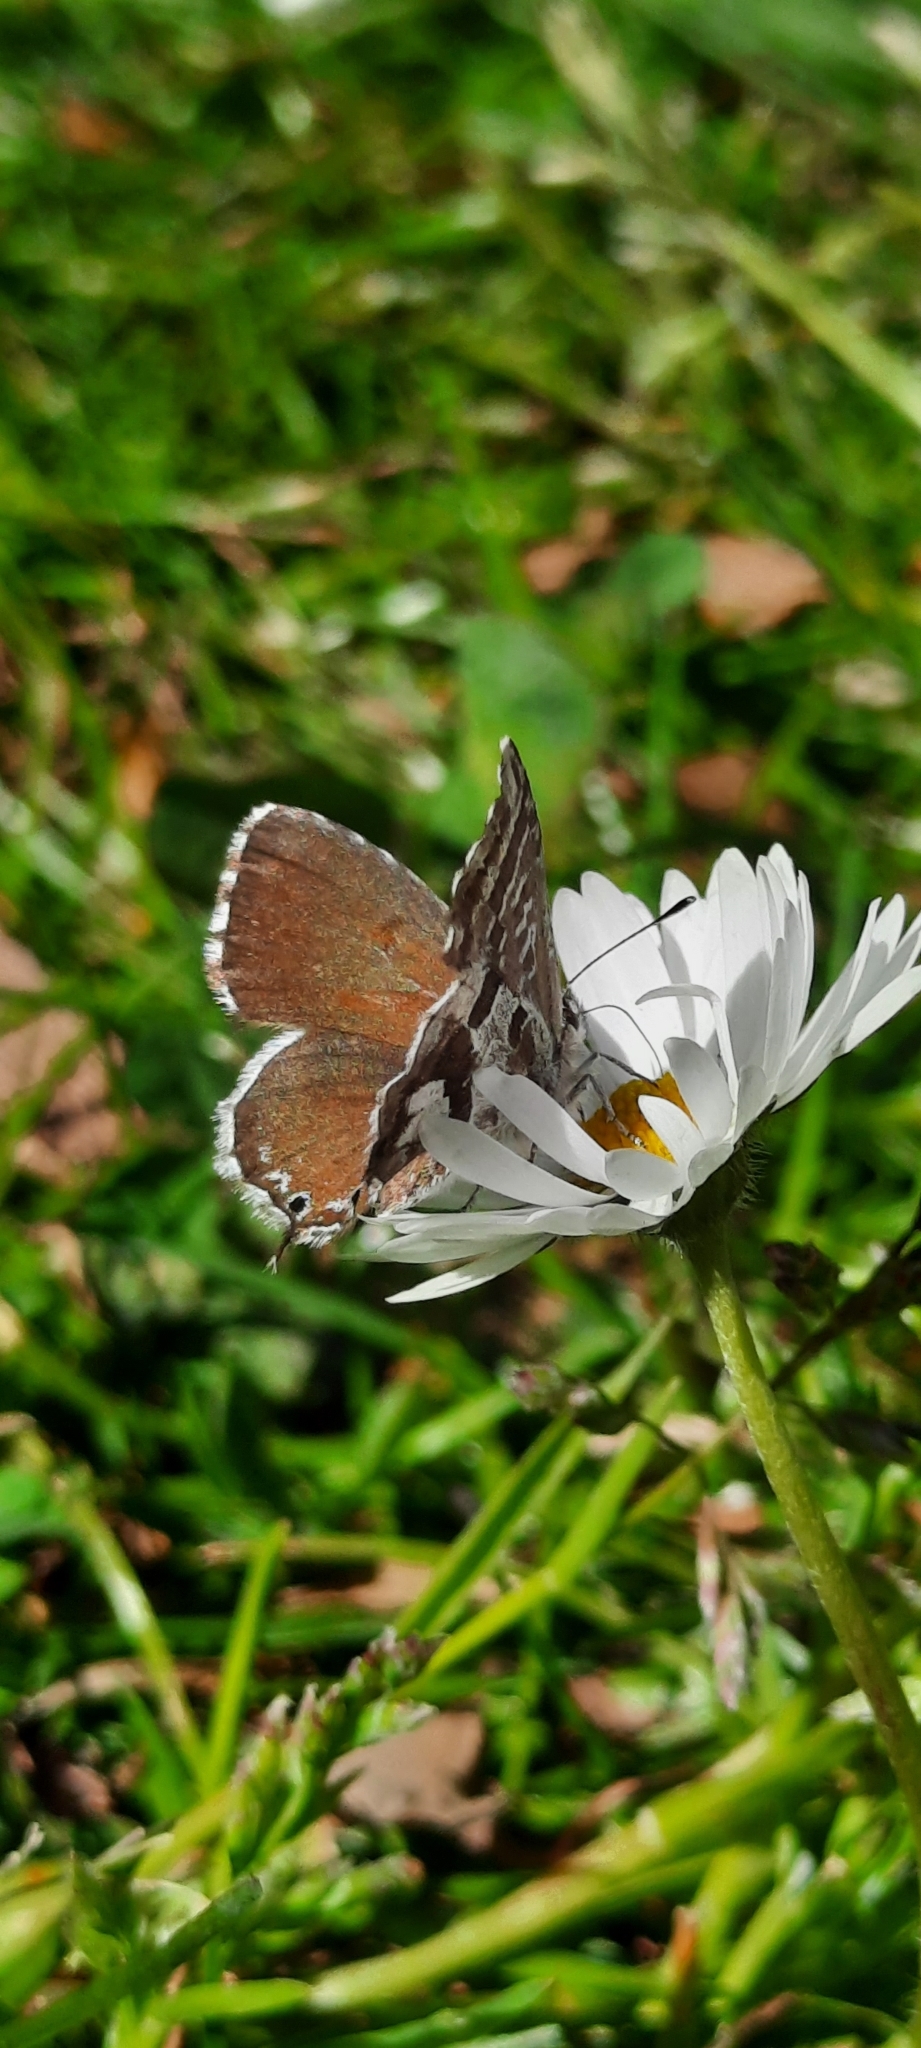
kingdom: Animalia
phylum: Arthropoda
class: Insecta
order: Lepidoptera
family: Lycaenidae
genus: Cacyreus
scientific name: Cacyreus marshalli
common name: Geranium bronze
